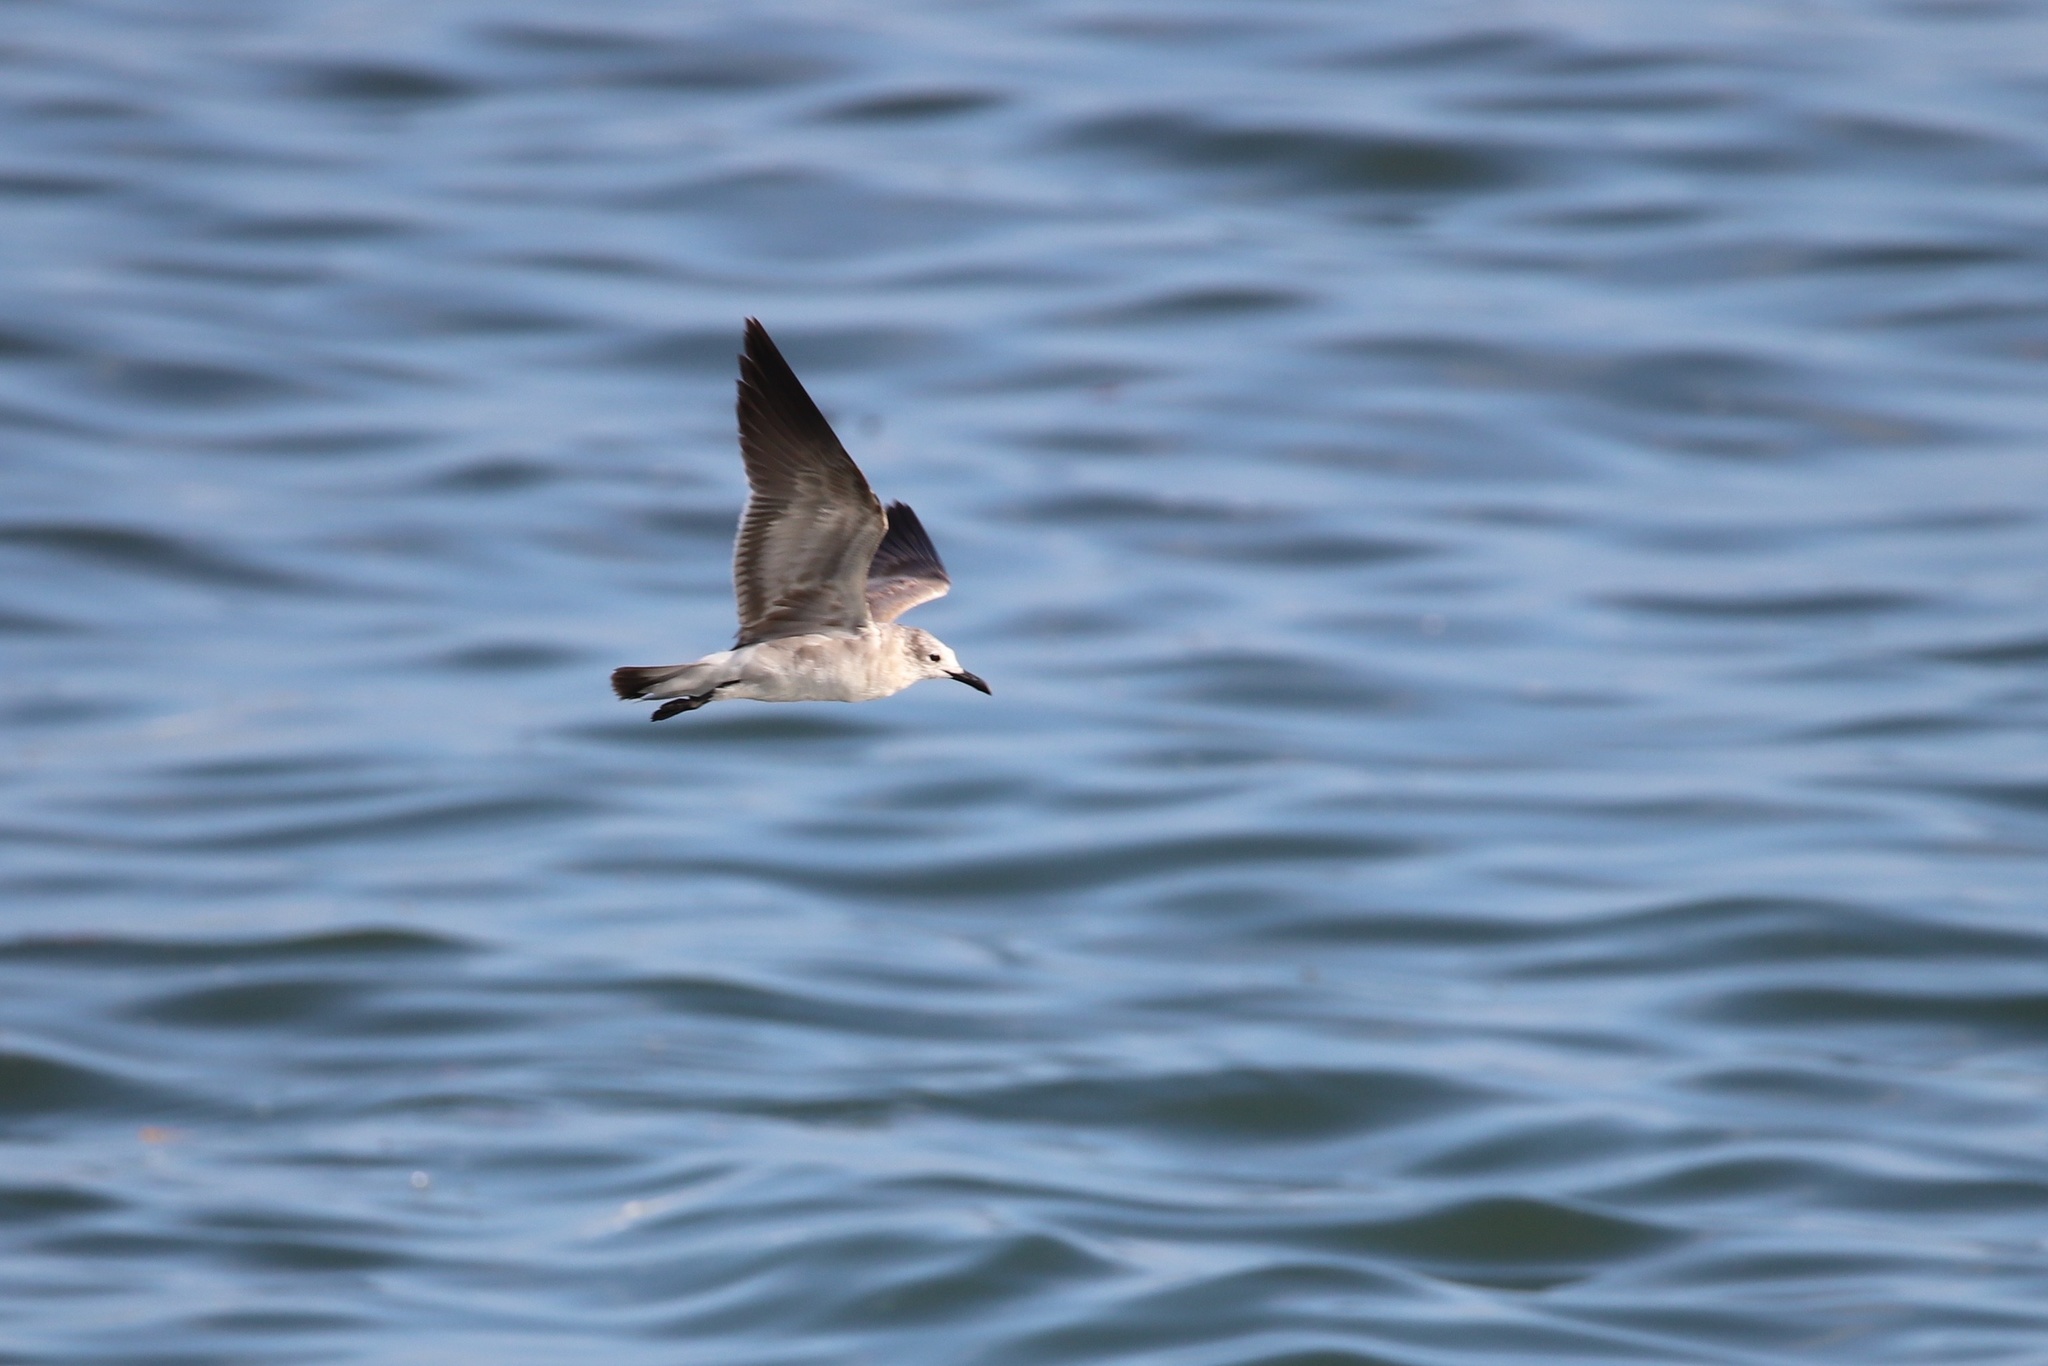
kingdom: Animalia
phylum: Chordata
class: Aves
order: Charadriiformes
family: Laridae
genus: Leucophaeus
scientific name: Leucophaeus atricilla
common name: Laughing gull
